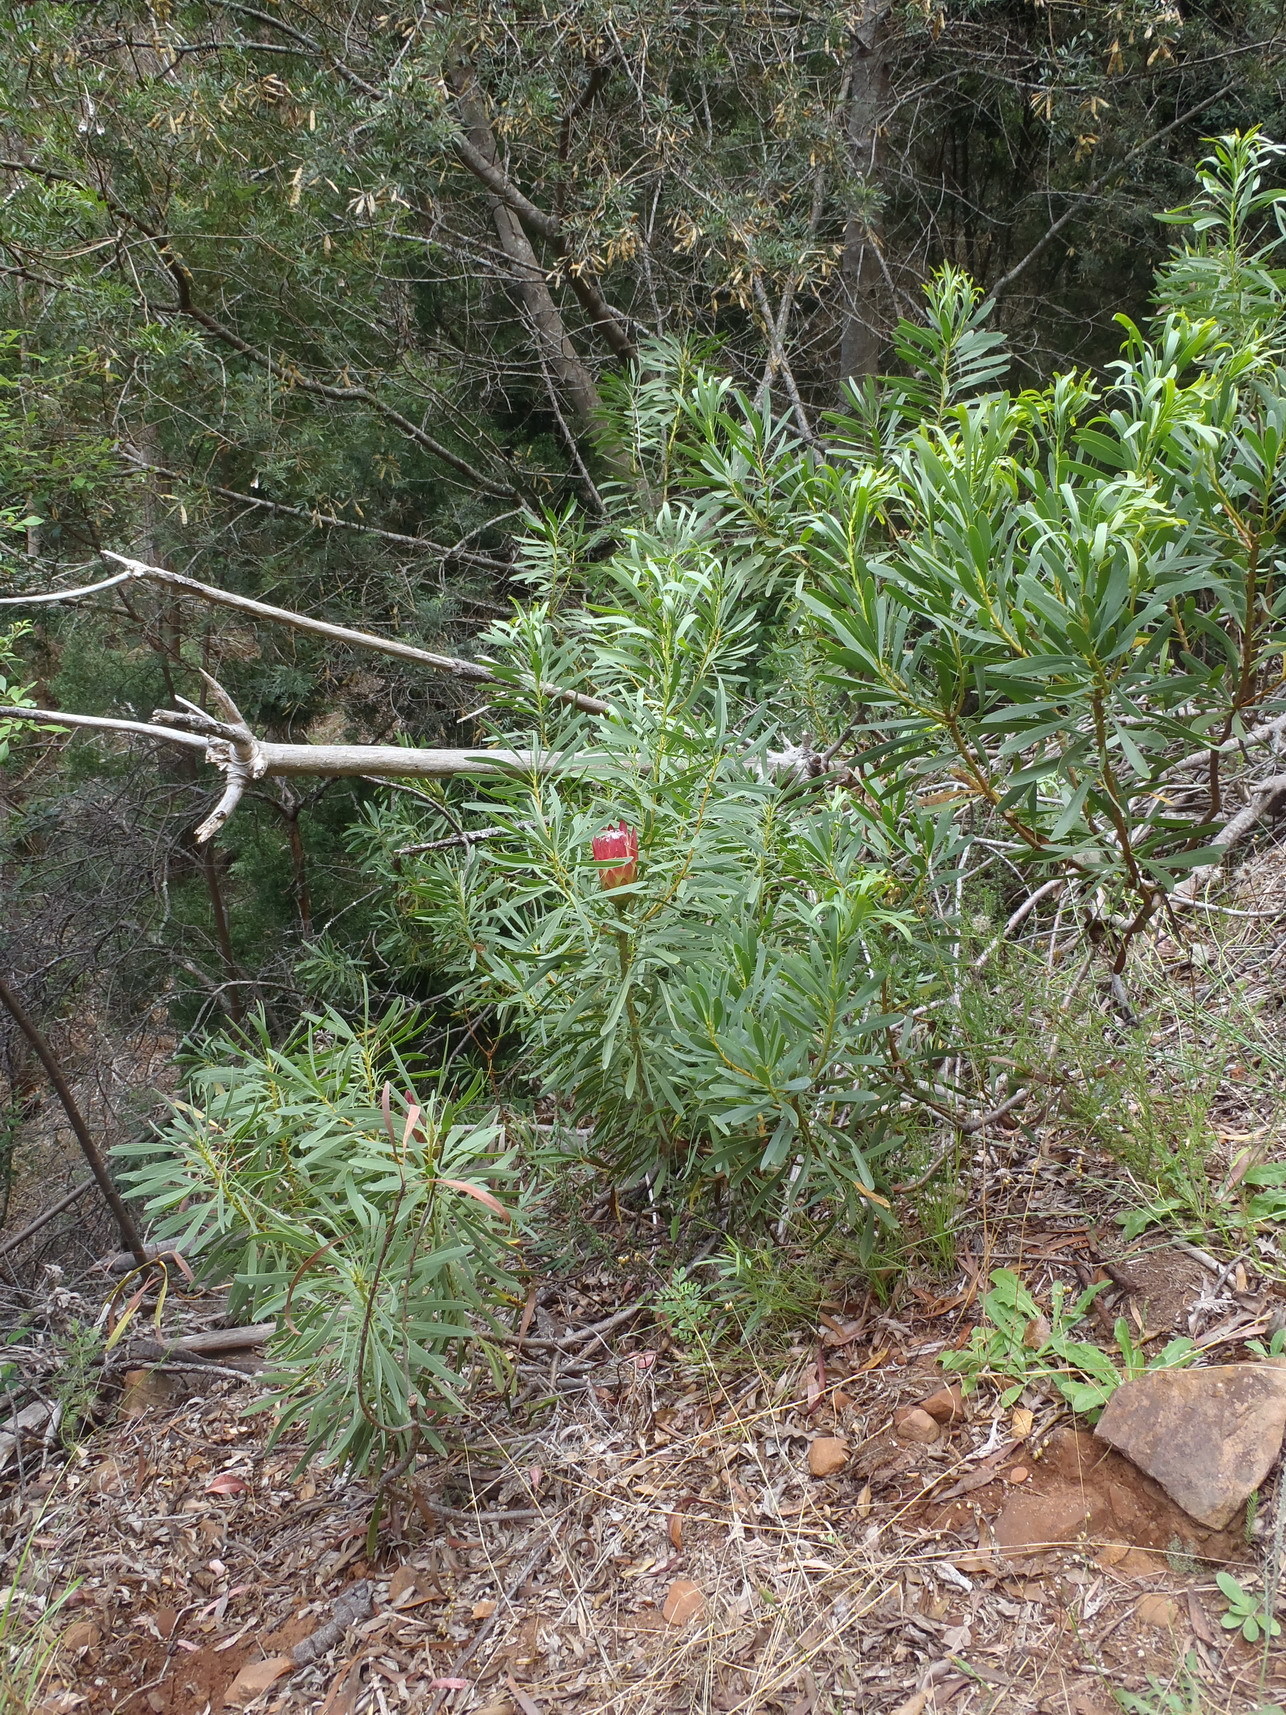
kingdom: Plantae
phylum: Tracheophyta
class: Magnoliopsida
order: Proteales
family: Proteaceae
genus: Protea
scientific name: Protea repens
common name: Sugarbush
